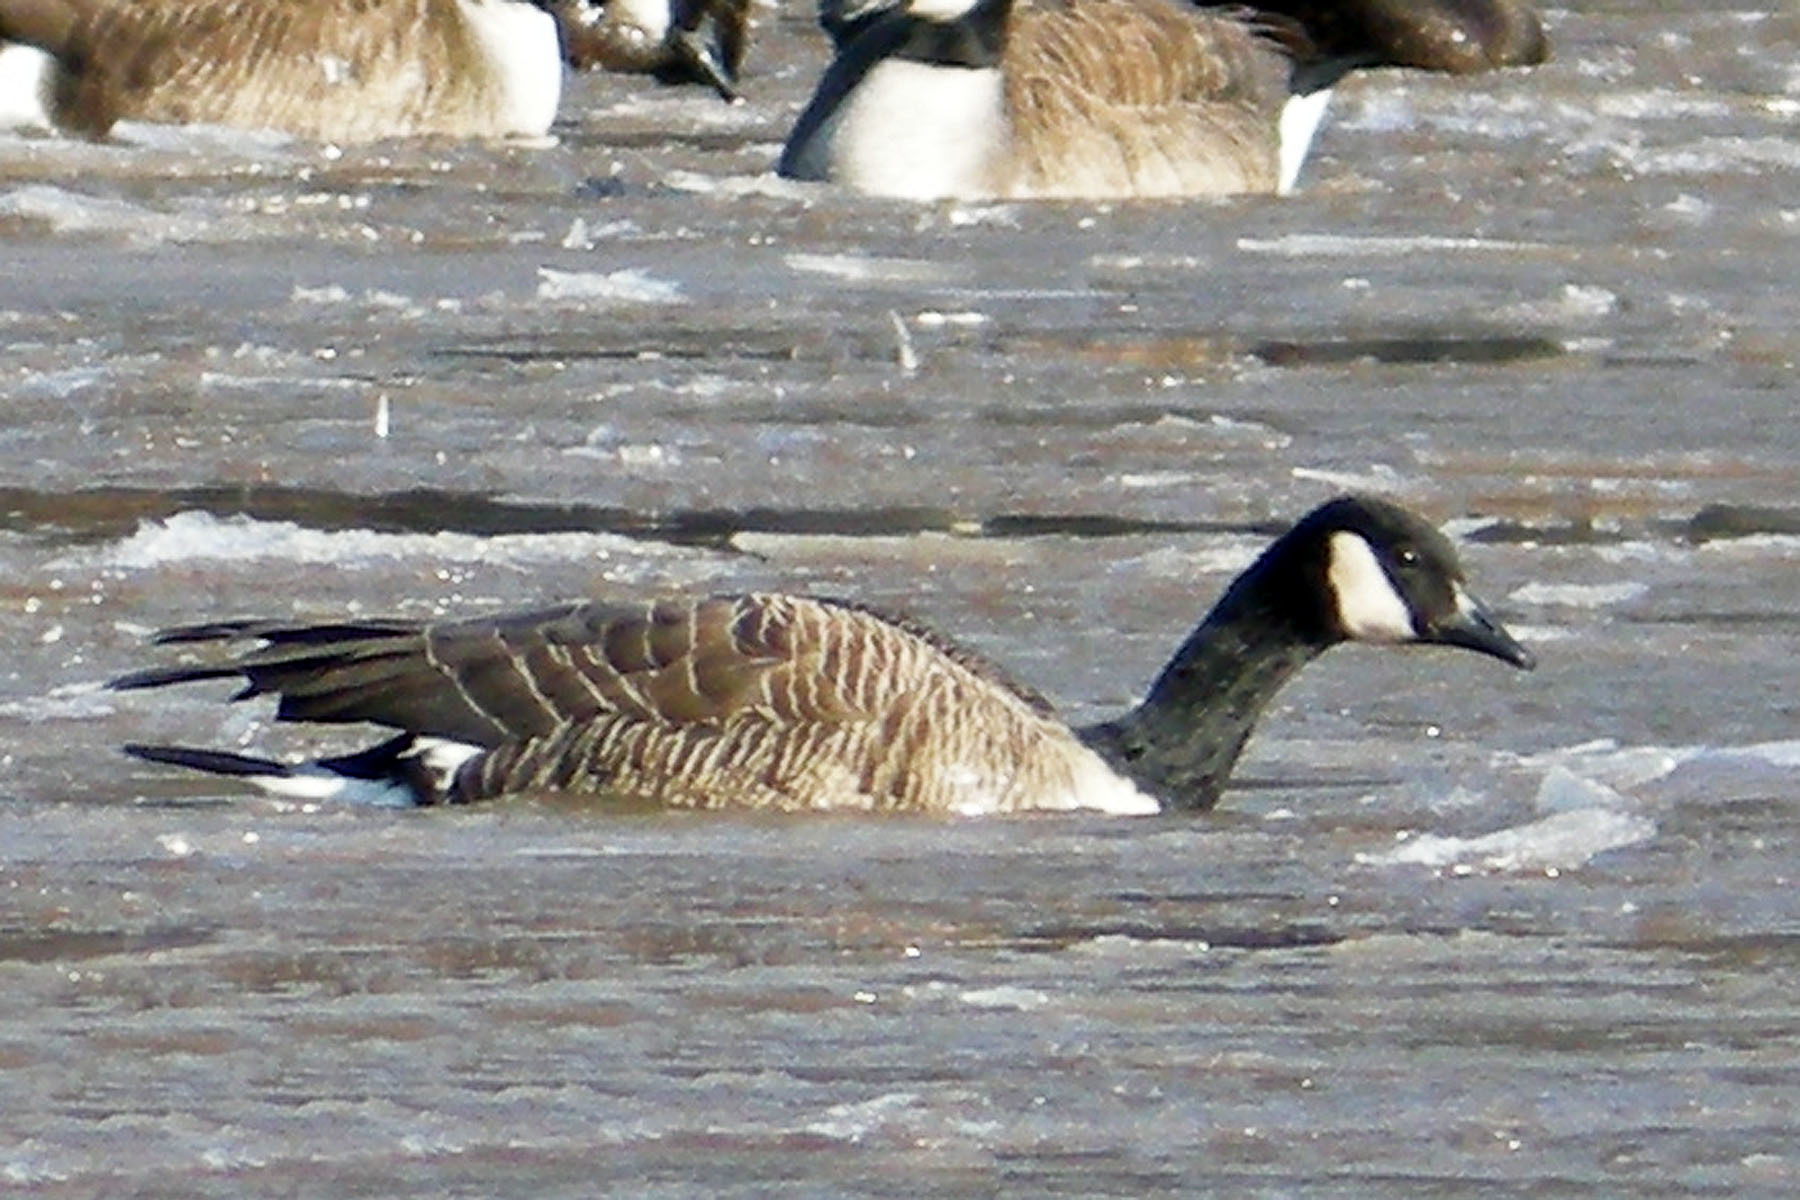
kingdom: Animalia
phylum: Chordata
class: Aves
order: Anseriformes
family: Anatidae
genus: Branta
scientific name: Branta canadensis
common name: Canada goose
